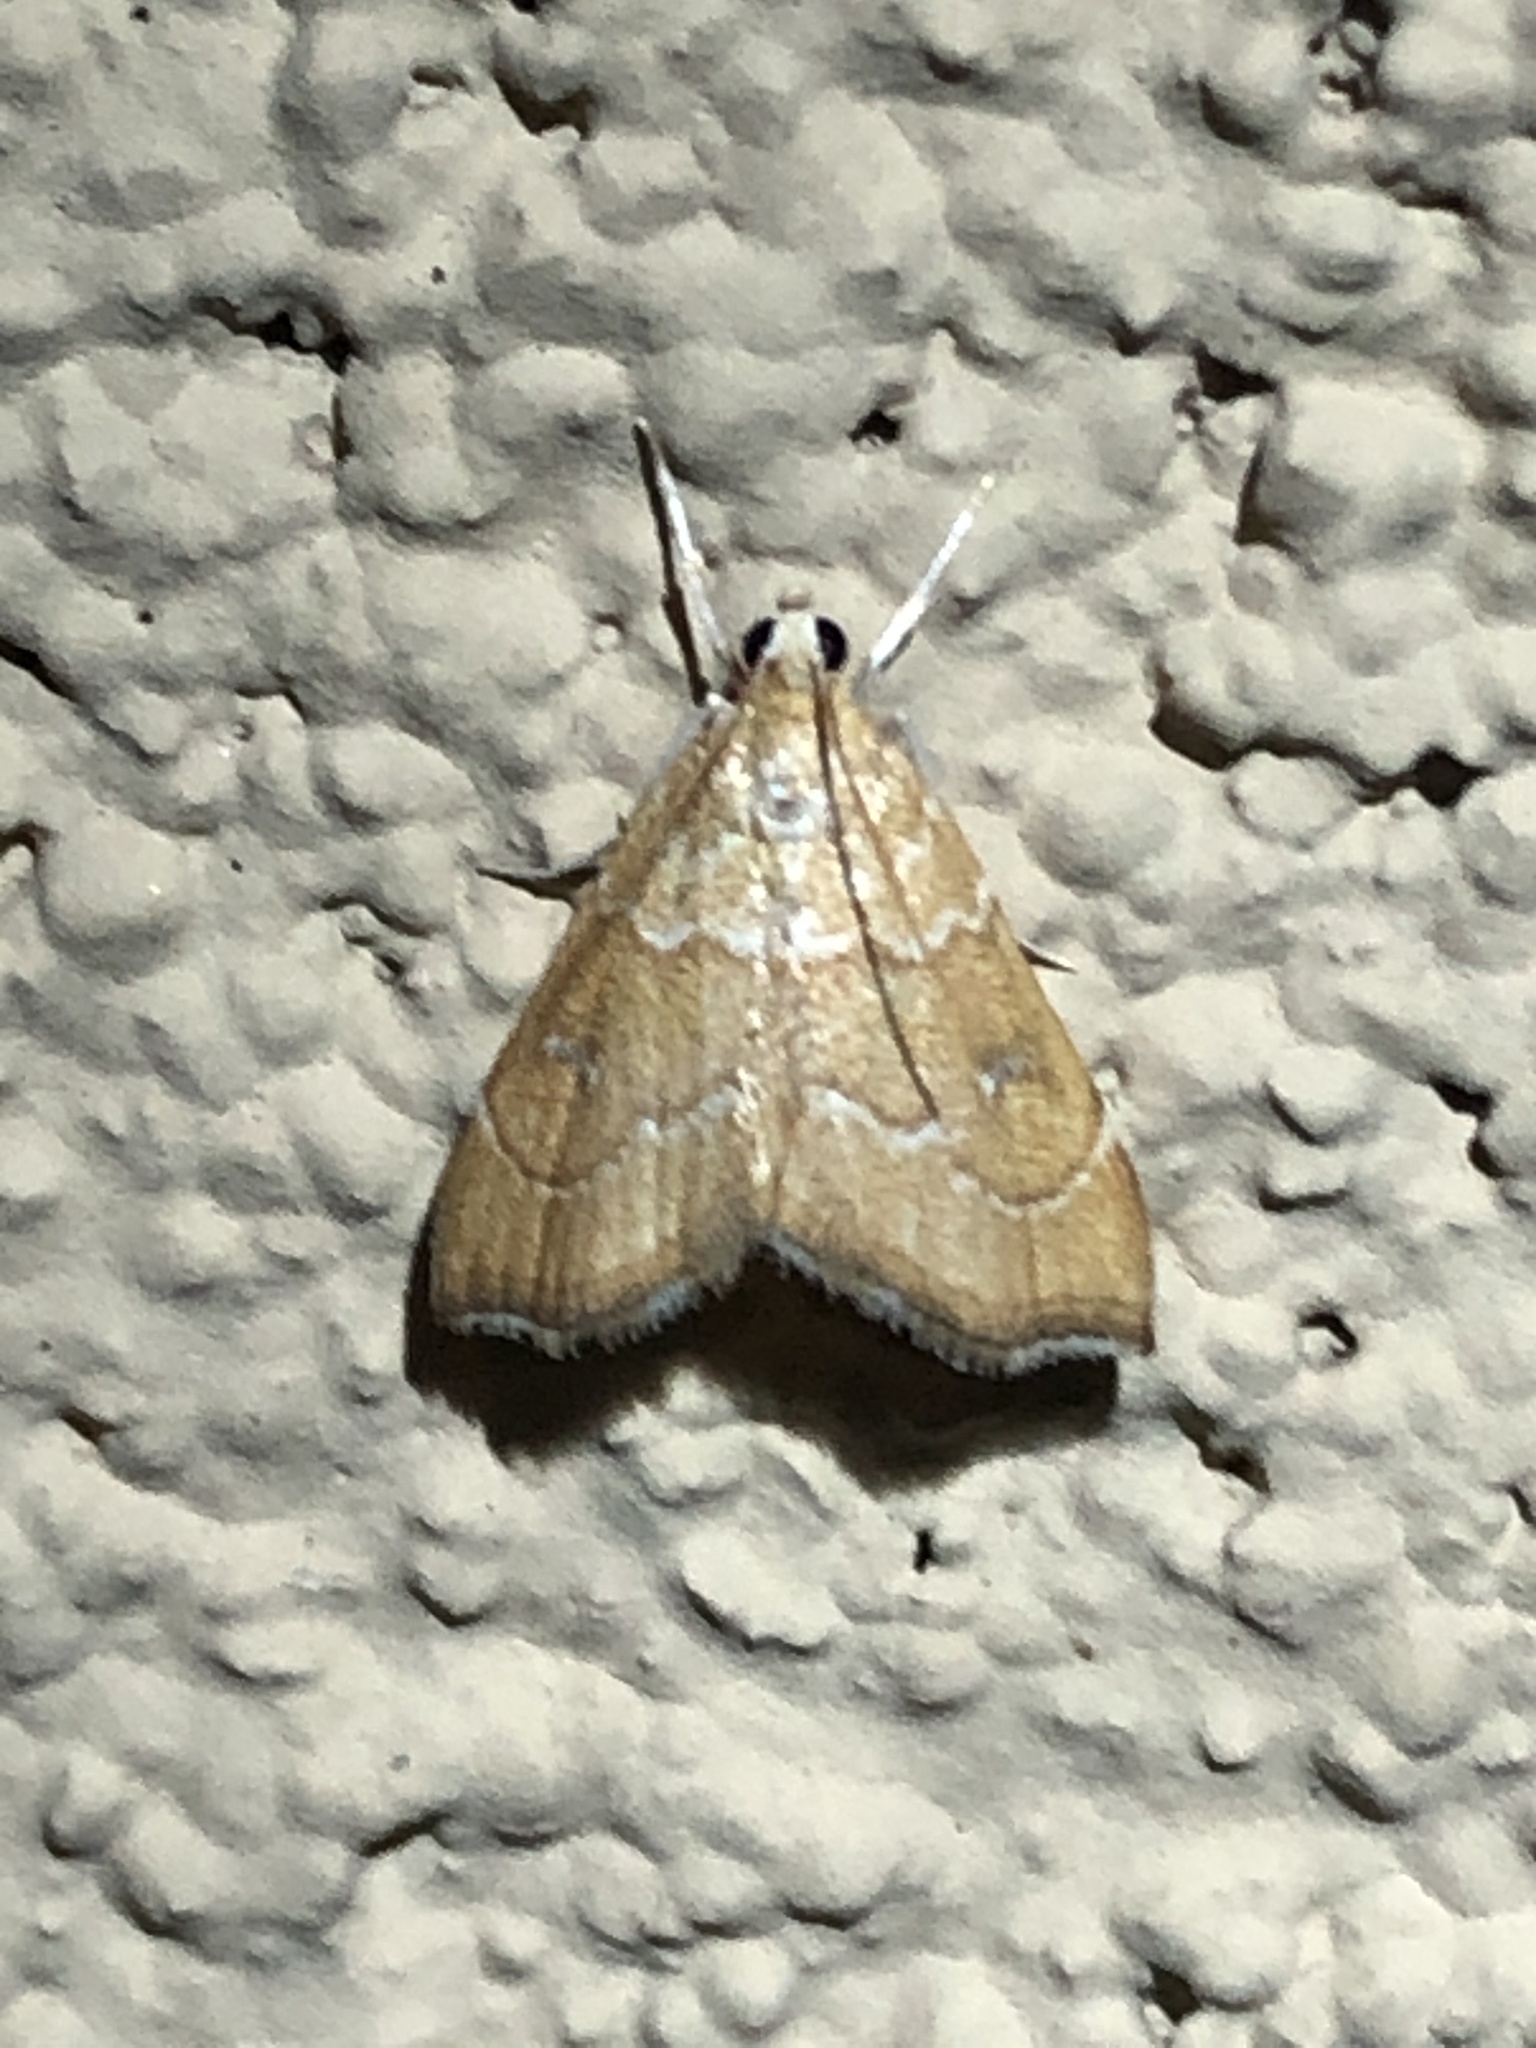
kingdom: Animalia
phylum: Arthropoda
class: Insecta
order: Lepidoptera
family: Crambidae
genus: Scybalistodes
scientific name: Scybalistodes vermiculalis
